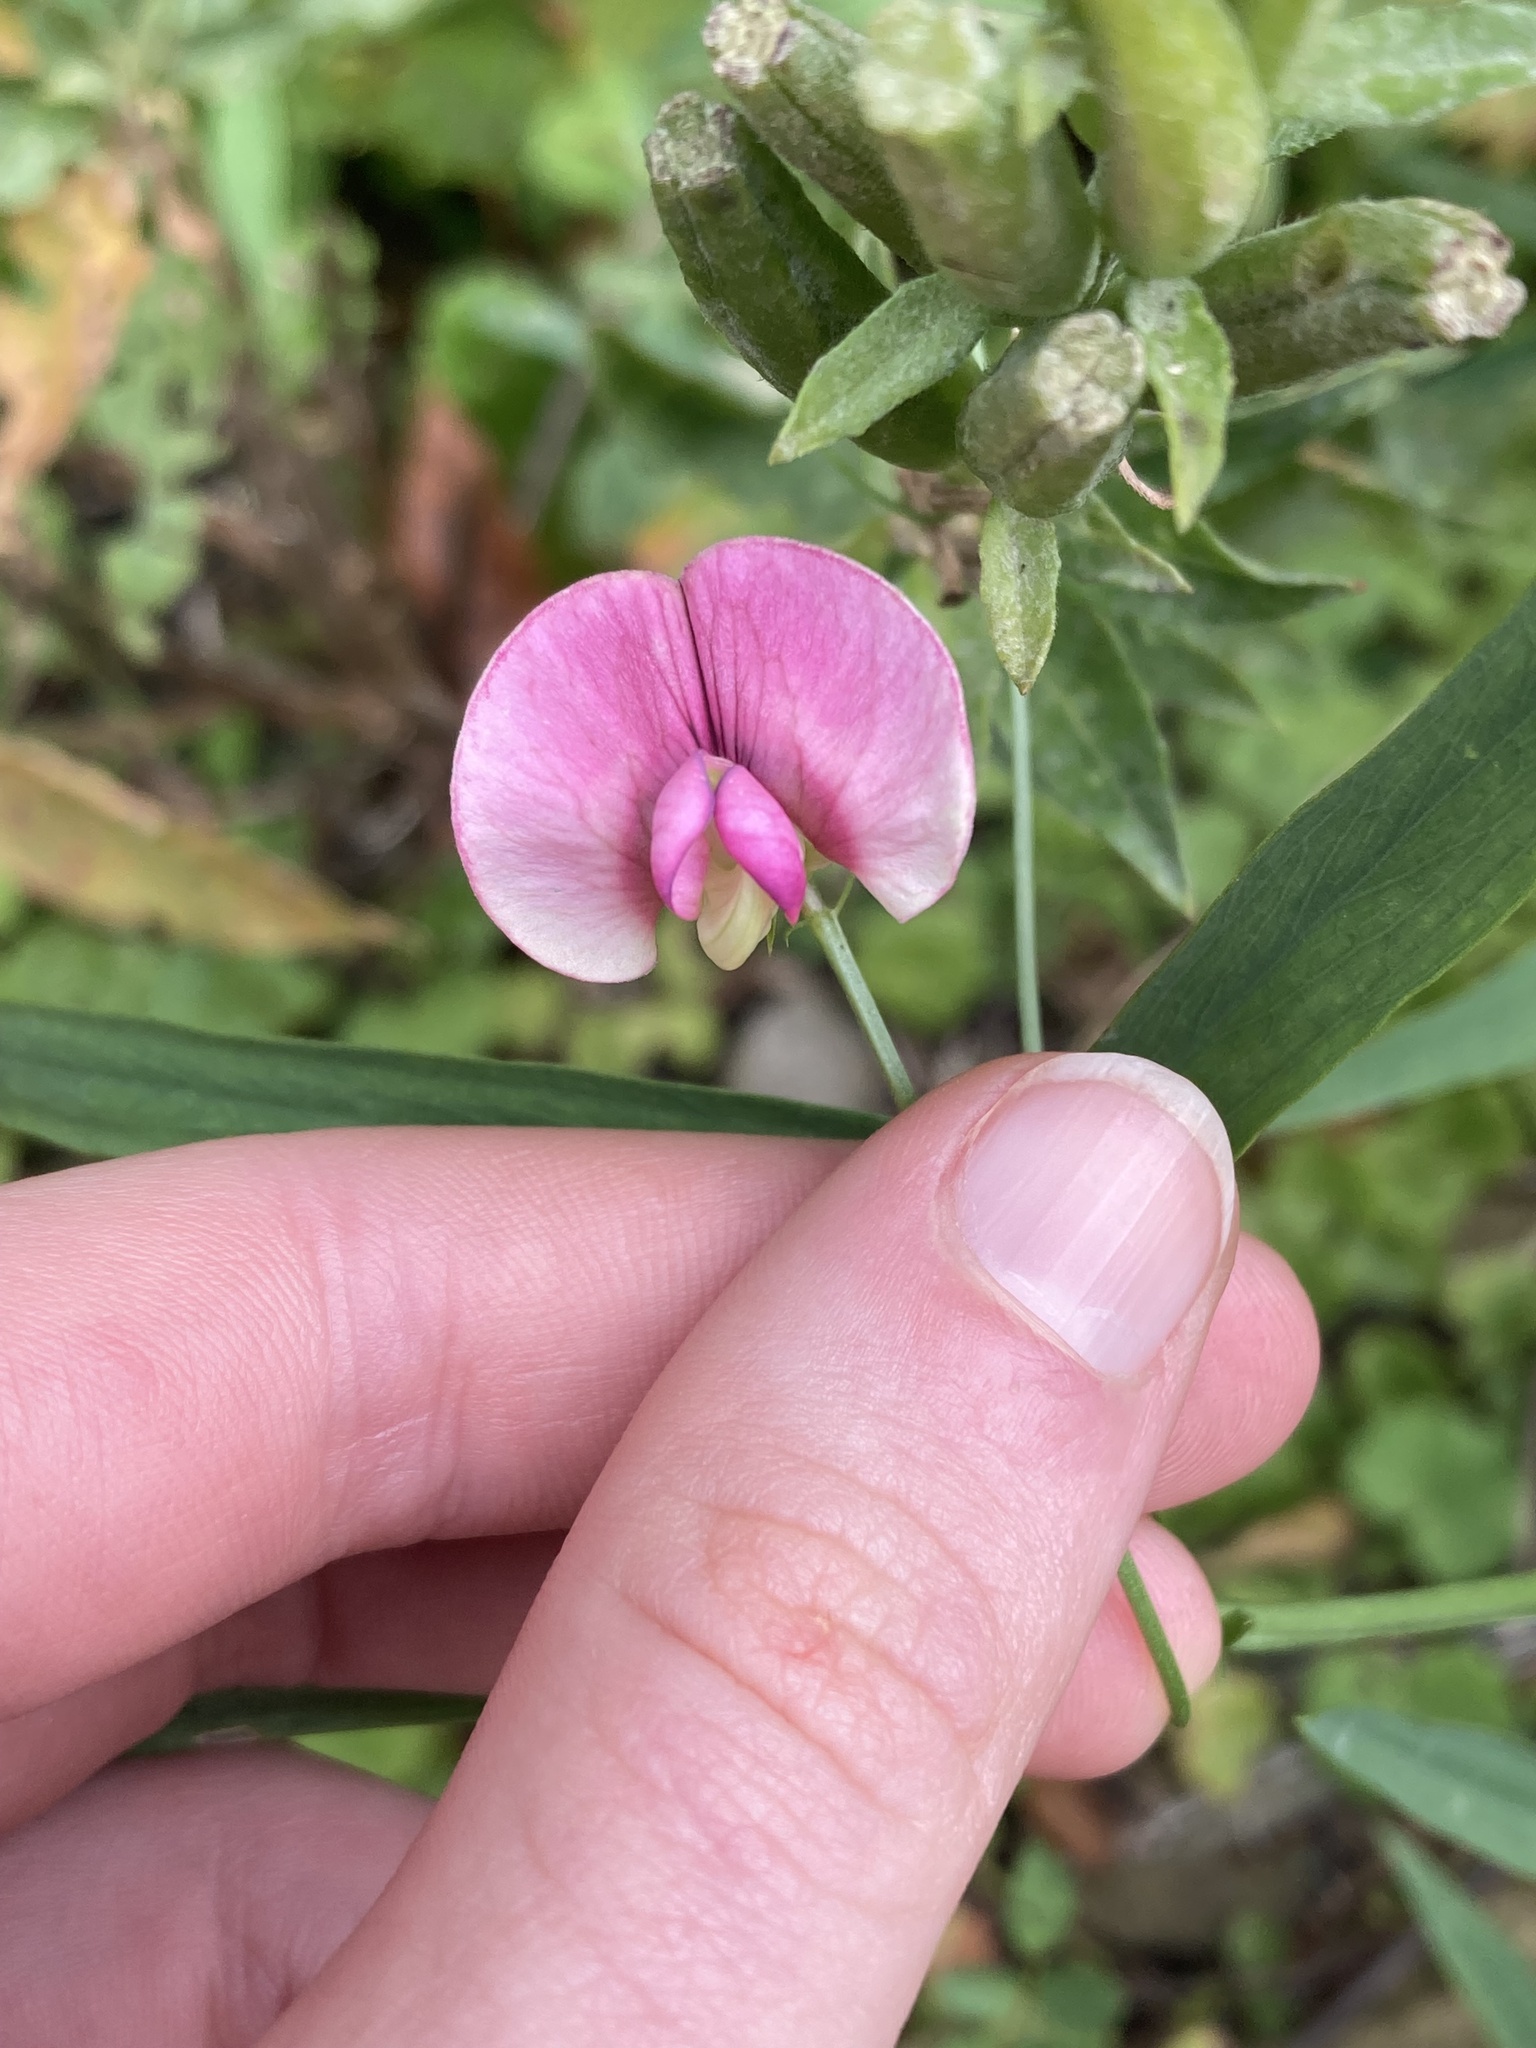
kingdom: Plantae
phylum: Tracheophyta
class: Magnoliopsida
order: Fabales
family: Fabaceae
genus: Lathyrus
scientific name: Lathyrus sylvestris
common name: Flat pea
